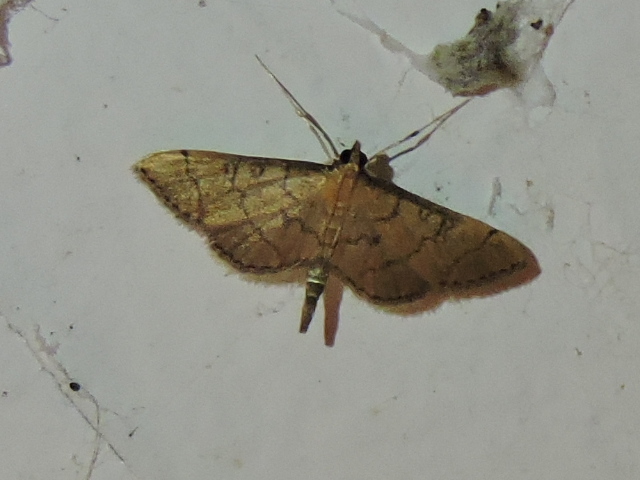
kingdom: Animalia
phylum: Arthropoda
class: Insecta
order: Lepidoptera
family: Crambidae
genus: Lamprosema
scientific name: Lamprosema Blepharomastix ranalis
